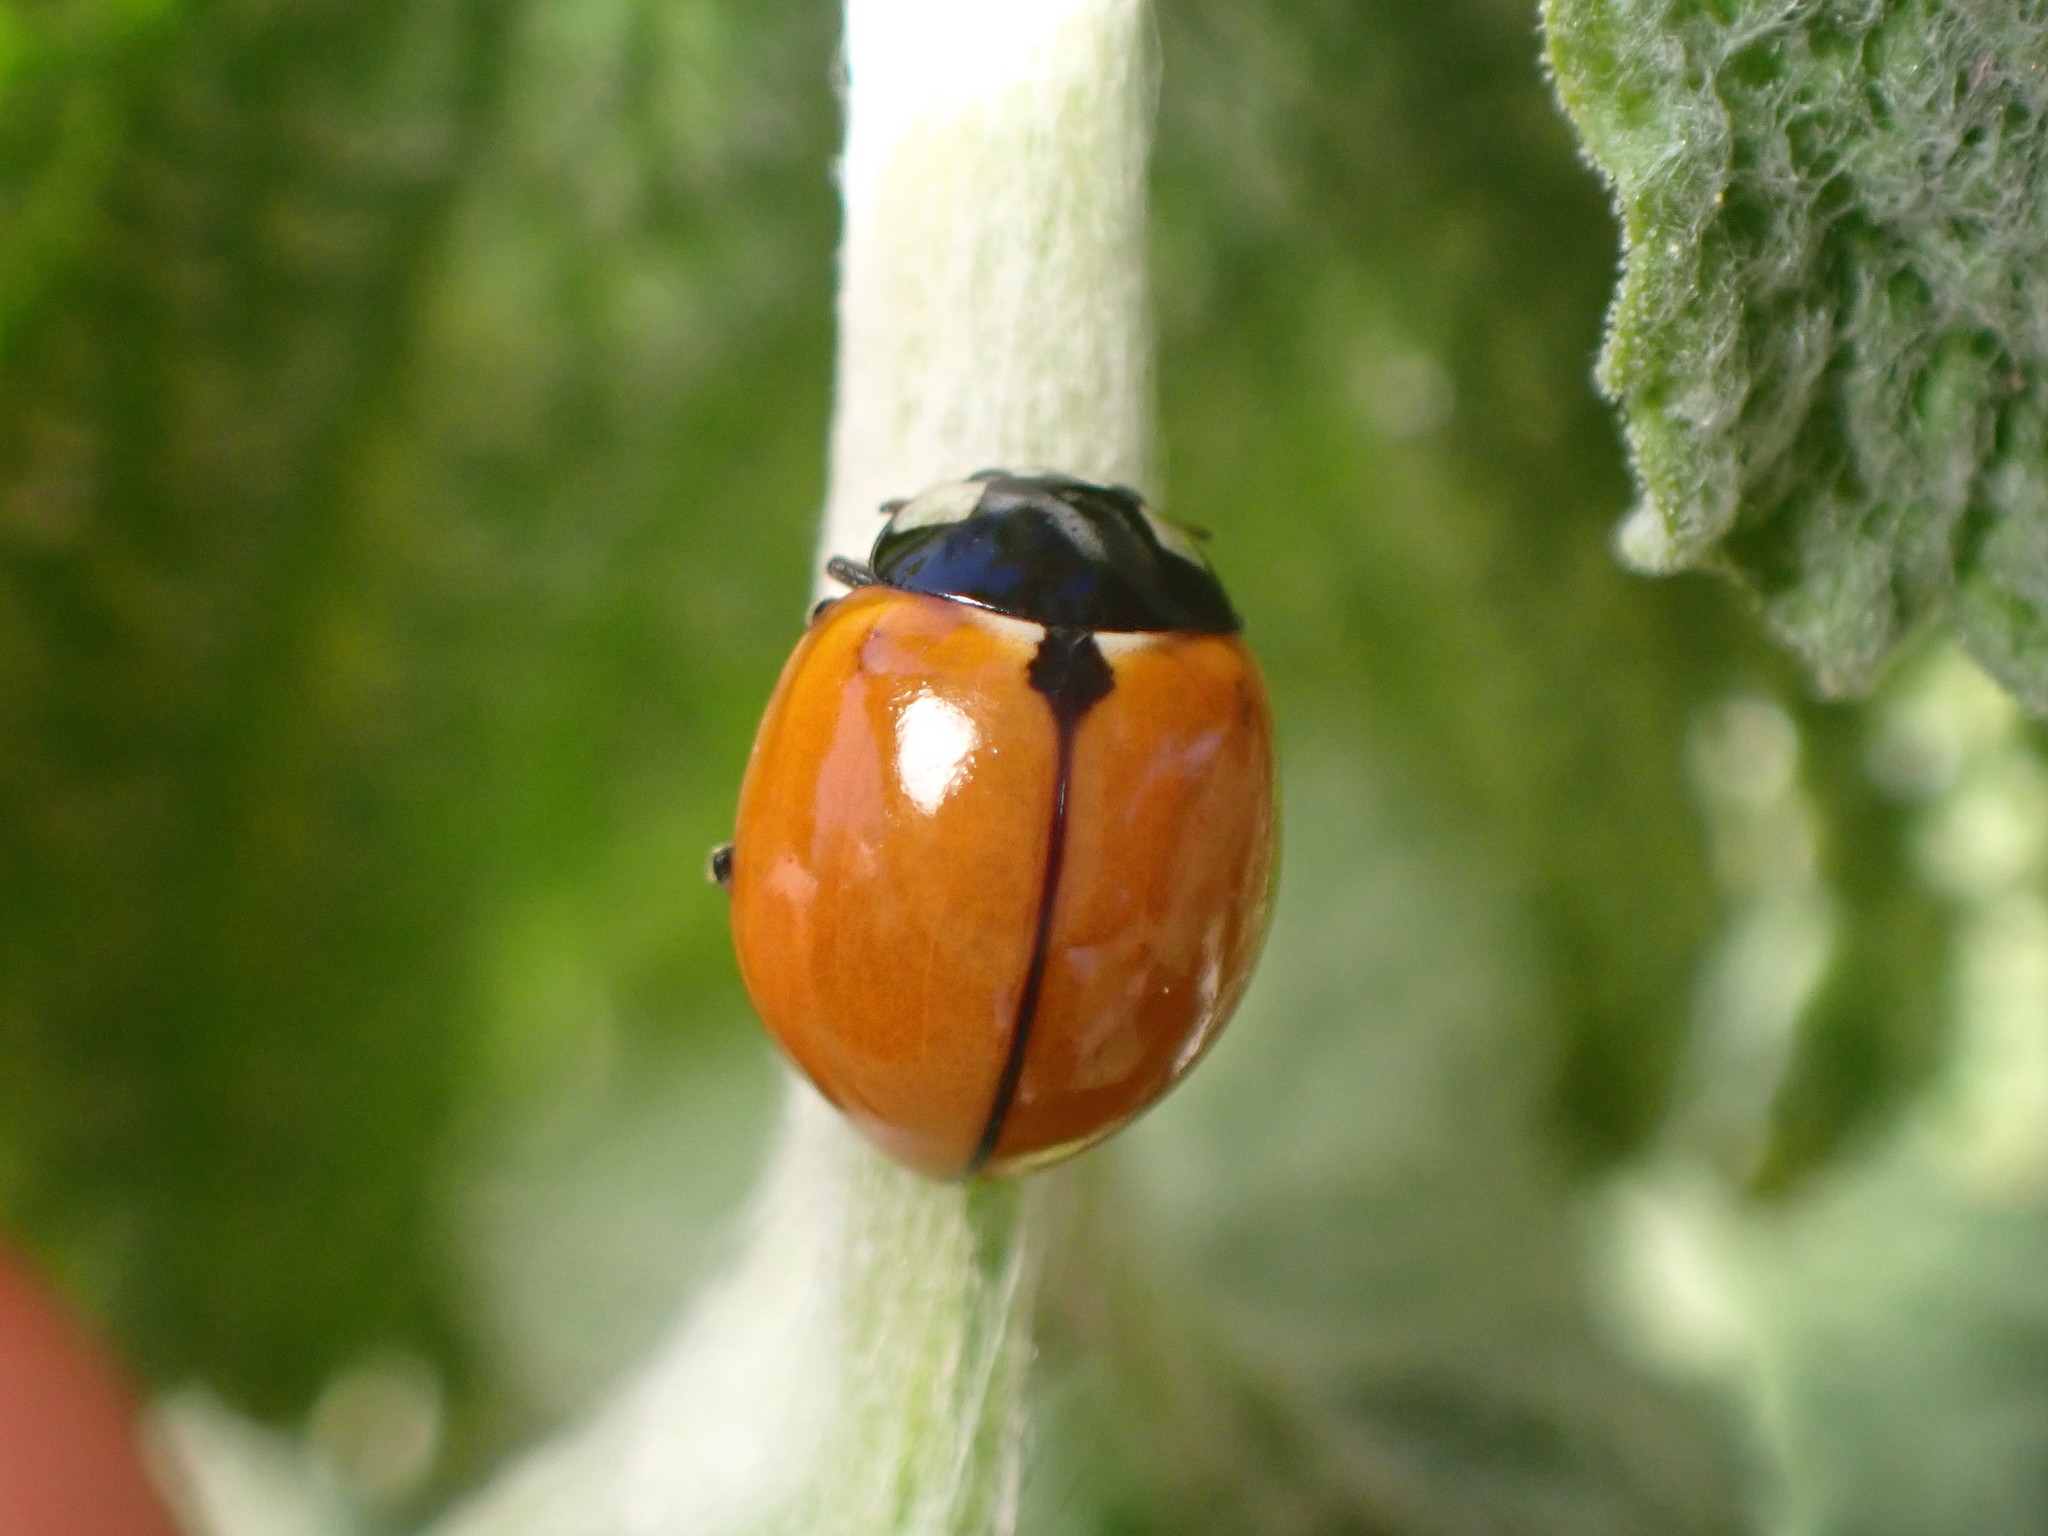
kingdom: Animalia
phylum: Arthropoda
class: Insecta
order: Coleoptera
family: Coccinellidae
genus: Coccinella
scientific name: Coccinella californica
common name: Lady beetle
